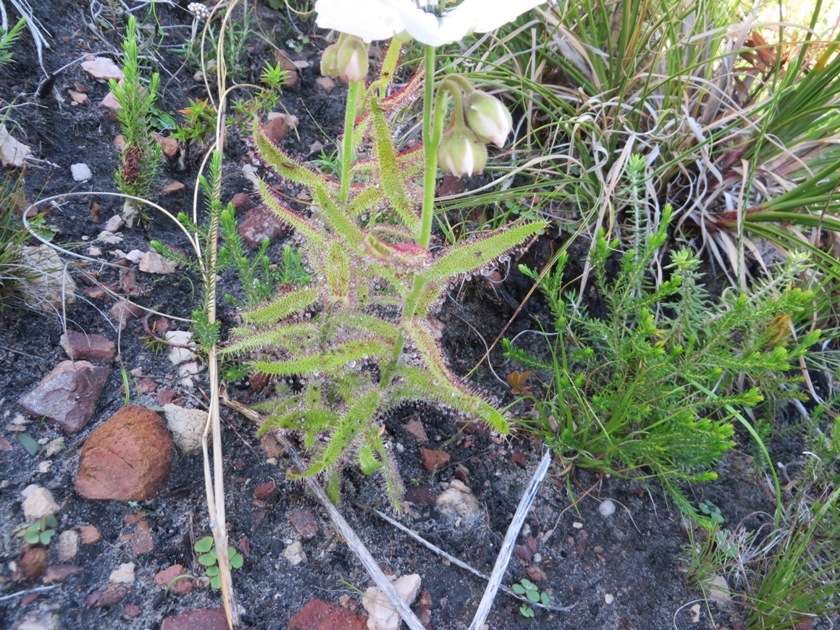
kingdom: Plantae
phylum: Tracheophyta
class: Magnoliopsida
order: Caryophyllales
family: Droseraceae
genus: Drosera
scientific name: Drosera cistiflora
